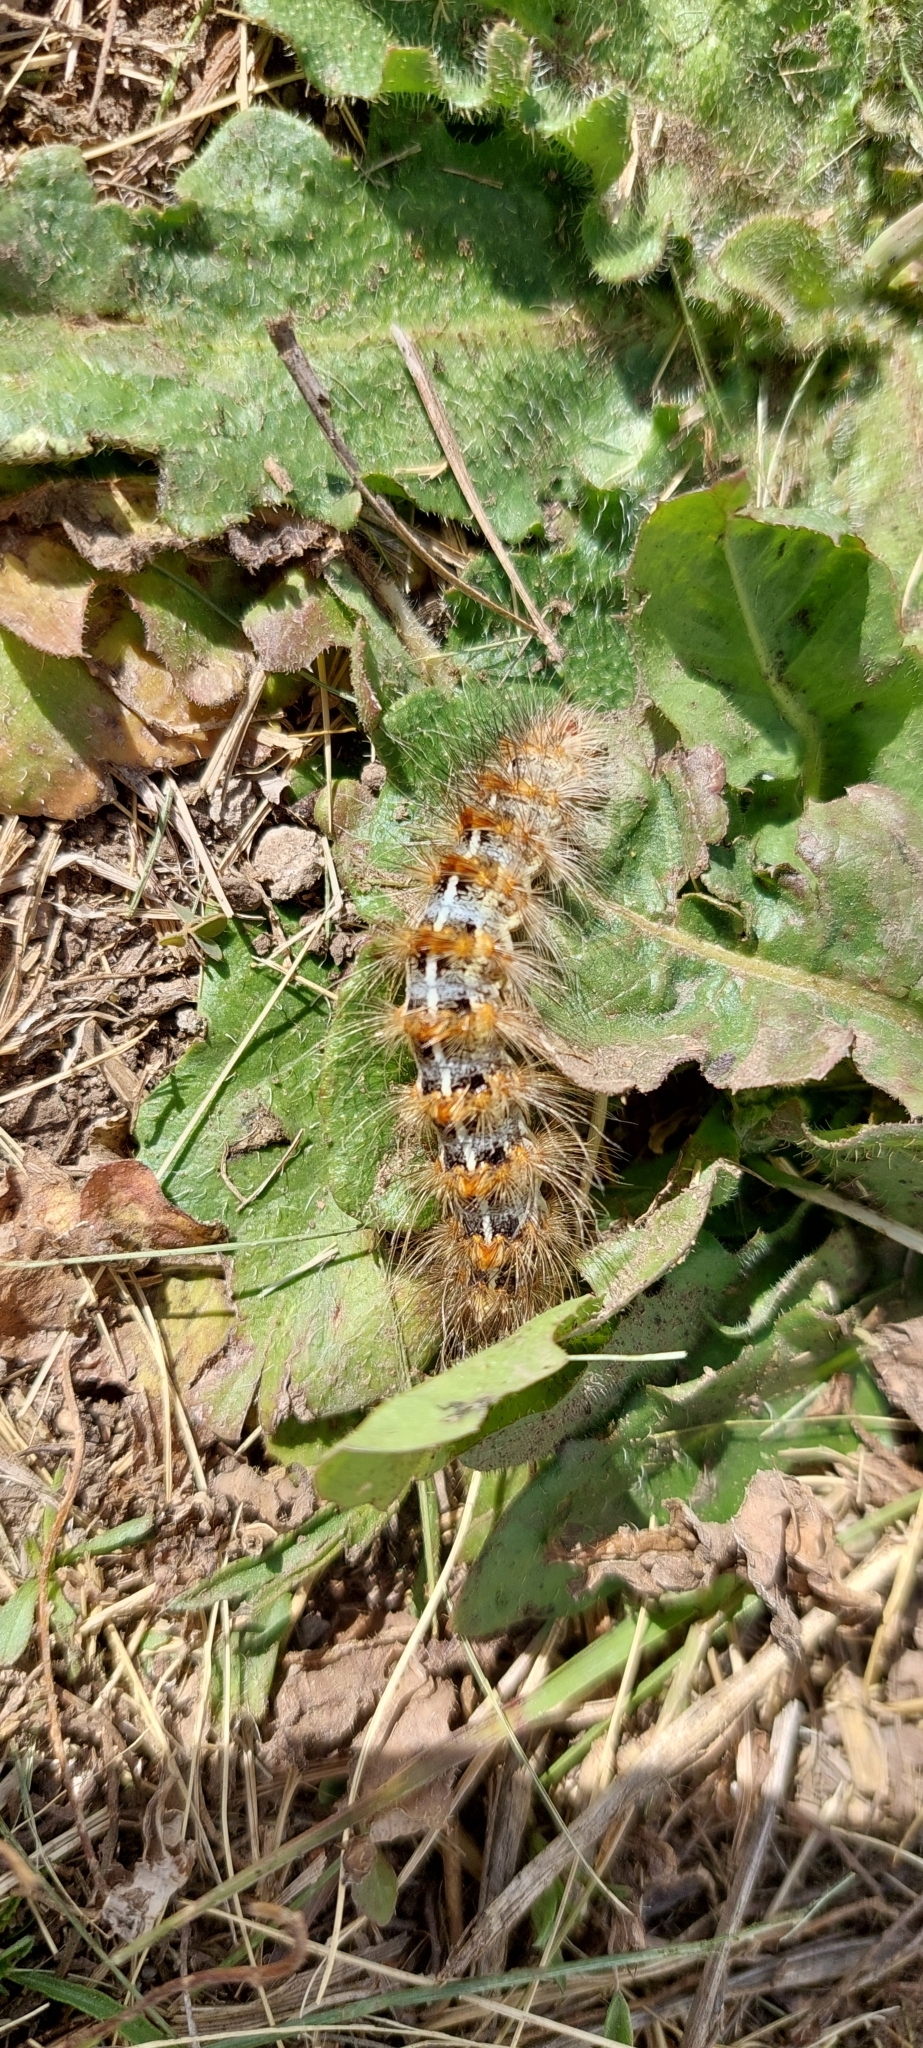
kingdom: Animalia
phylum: Arthropoda
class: Insecta
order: Lepidoptera
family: Erebidae
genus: Paracles
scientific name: Paracles deserticola
